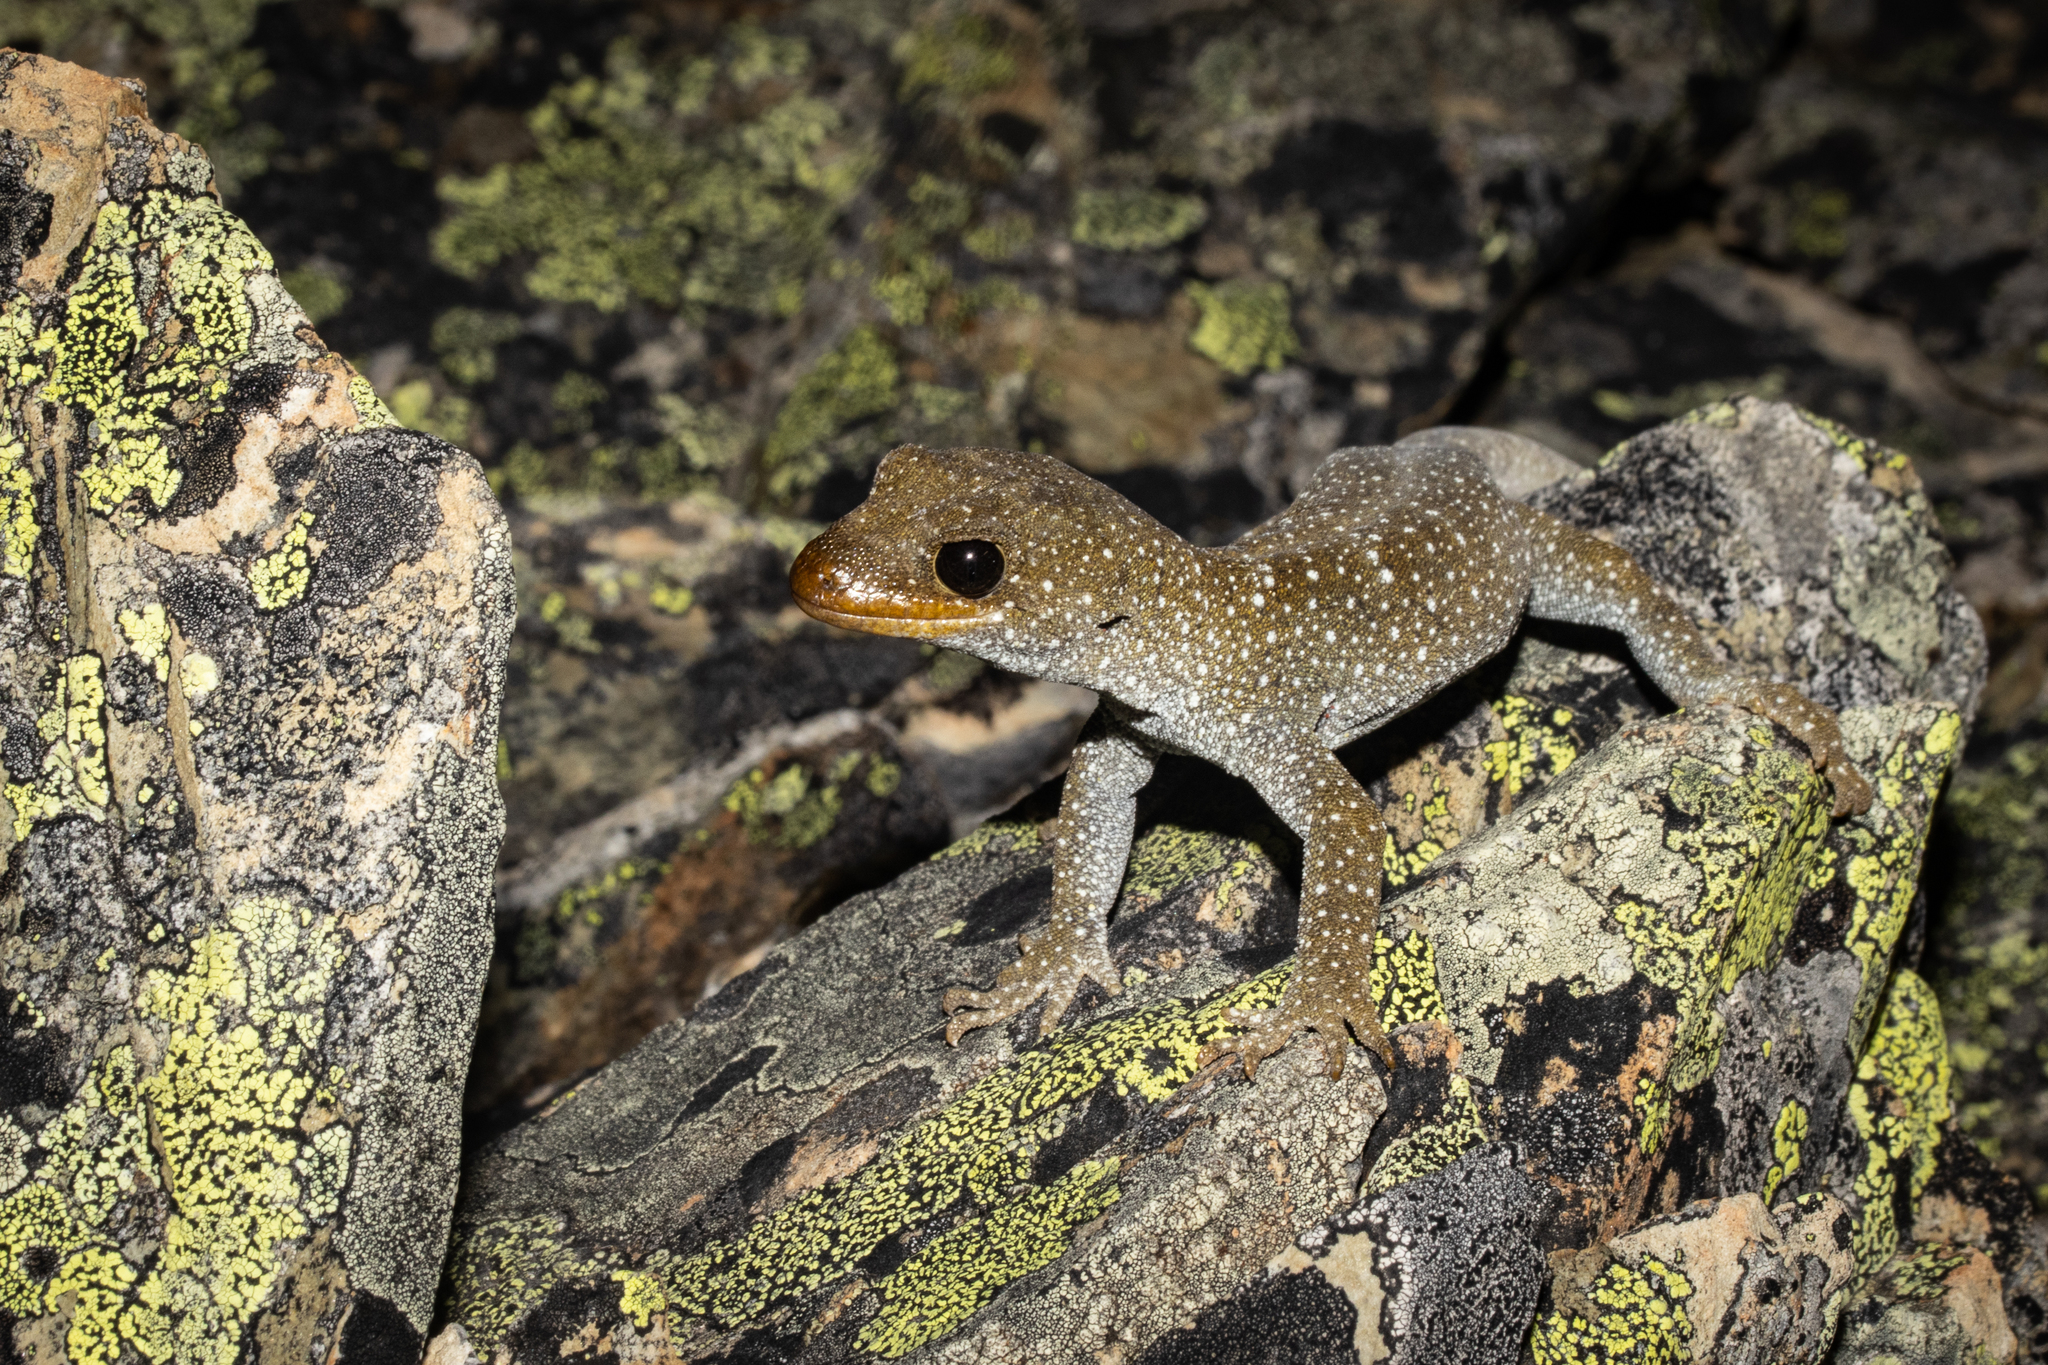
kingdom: Animalia
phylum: Chordata
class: Squamata
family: Diplodactylidae
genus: Mokopirirakau
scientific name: Mokopirirakau galaxias
